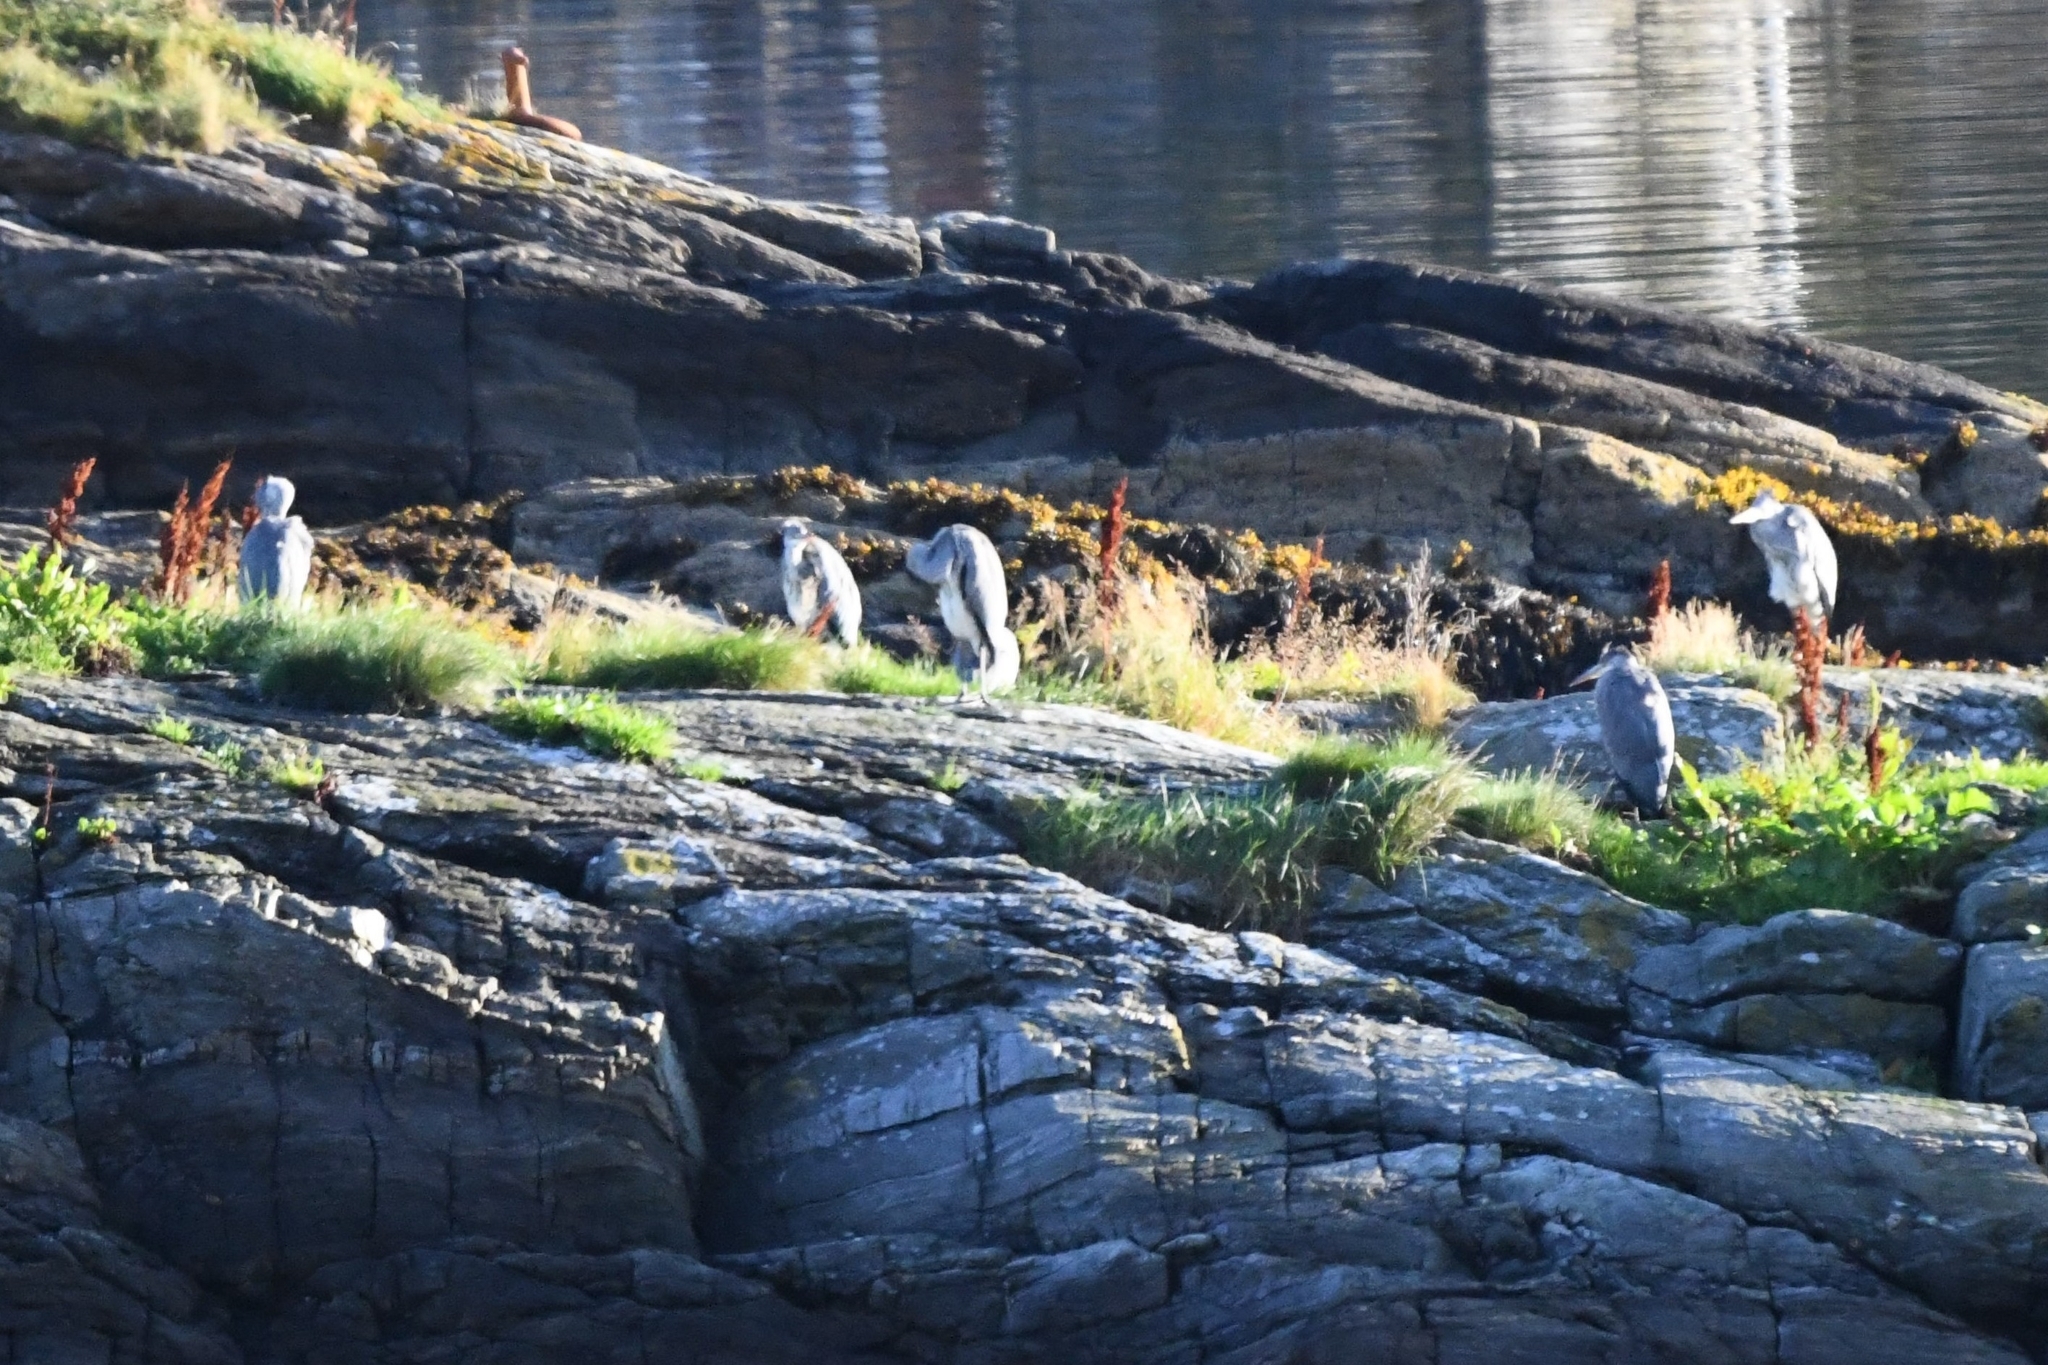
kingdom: Animalia
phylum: Chordata
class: Aves
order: Pelecaniformes
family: Ardeidae
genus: Ardea
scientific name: Ardea cinerea
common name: Grey heron
